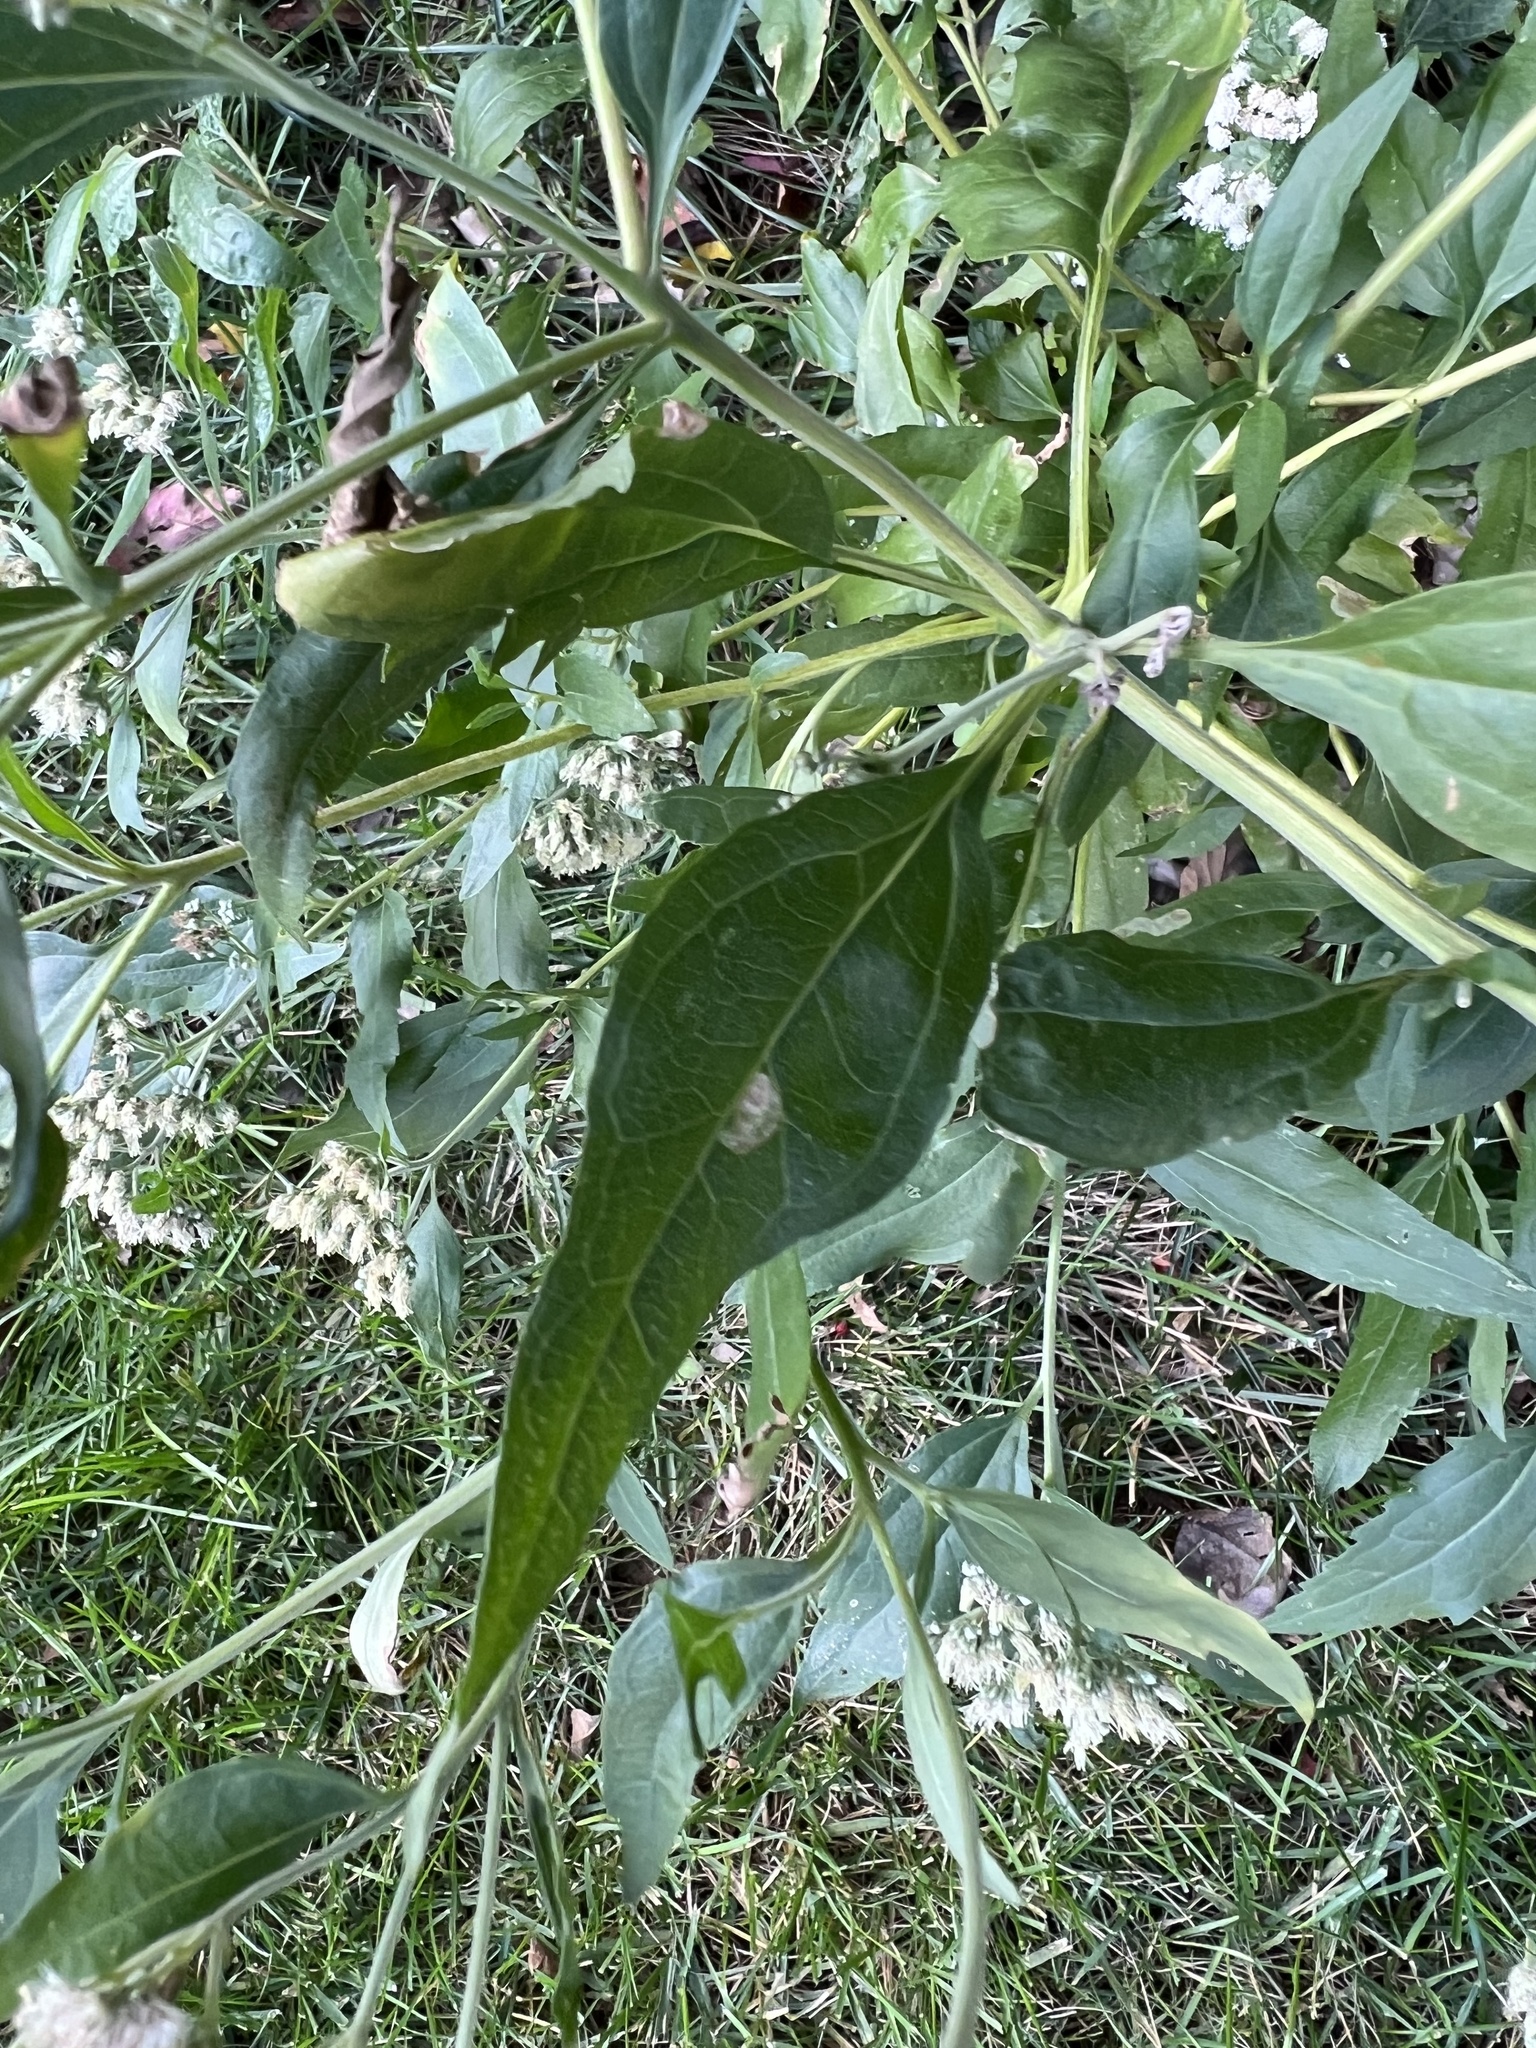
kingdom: Plantae
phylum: Tracheophyta
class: Magnoliopsida
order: Asterales
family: Asteraceae
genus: Eupatorium
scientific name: Eupatorium serotinum
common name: Late boneset
